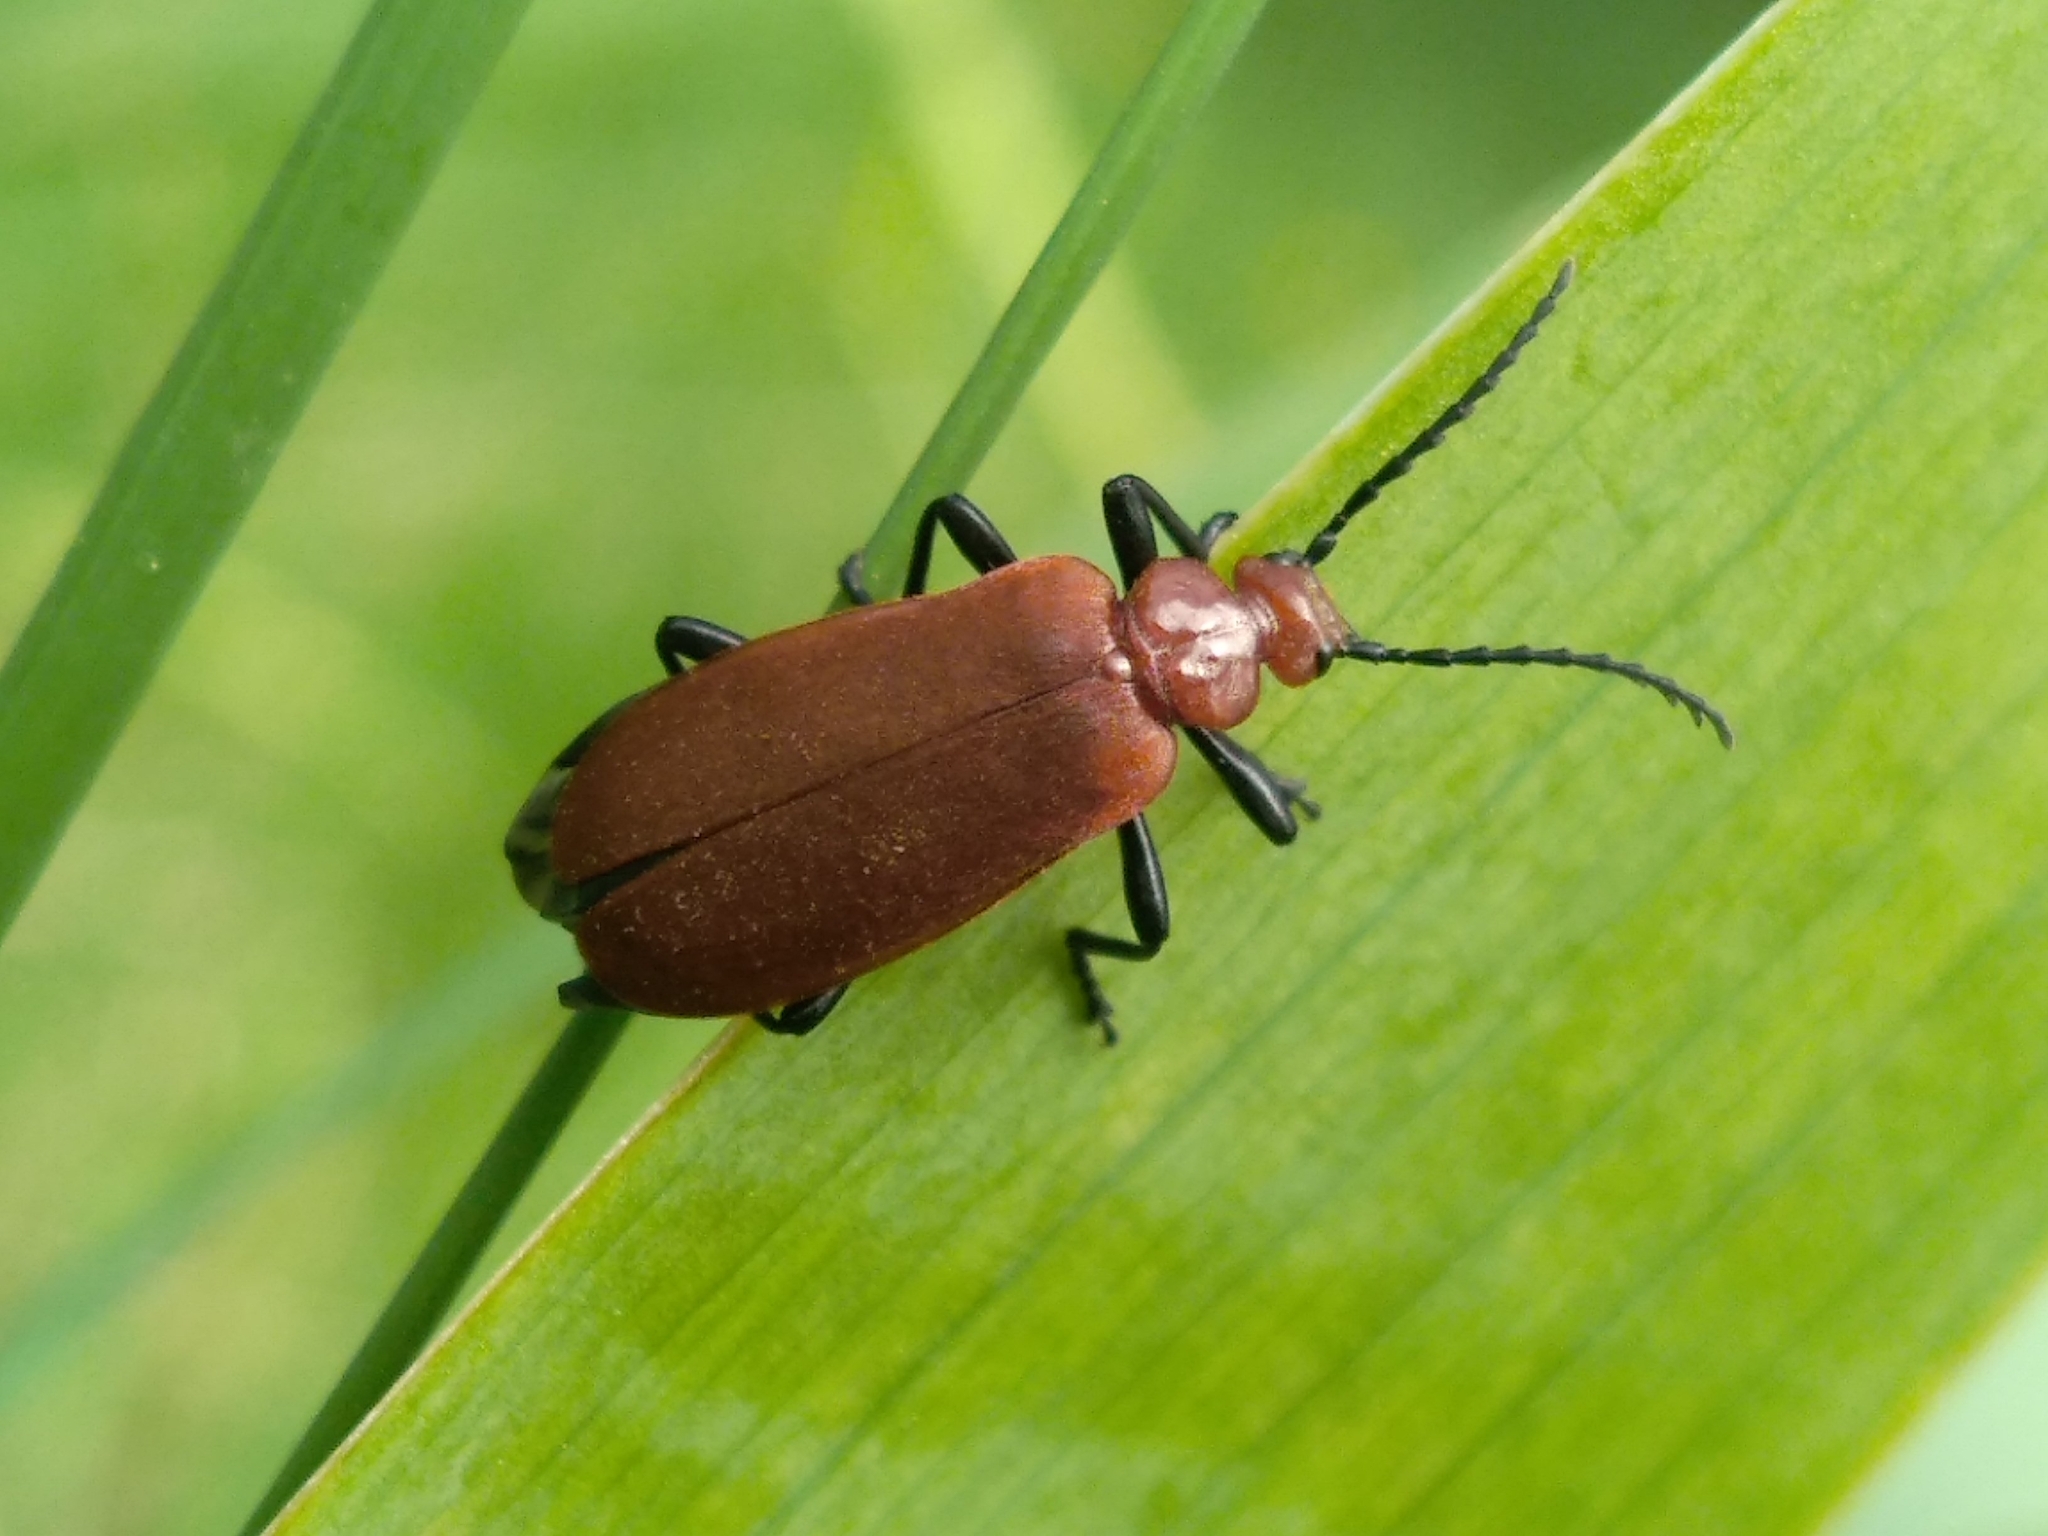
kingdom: Animalia
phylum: Arthropoda
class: Insecta
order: Coleoptera
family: Pyrochroidae
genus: Pyrochroa
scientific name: Pyrochroa serraticornis
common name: Red-headed cardinal beetle
